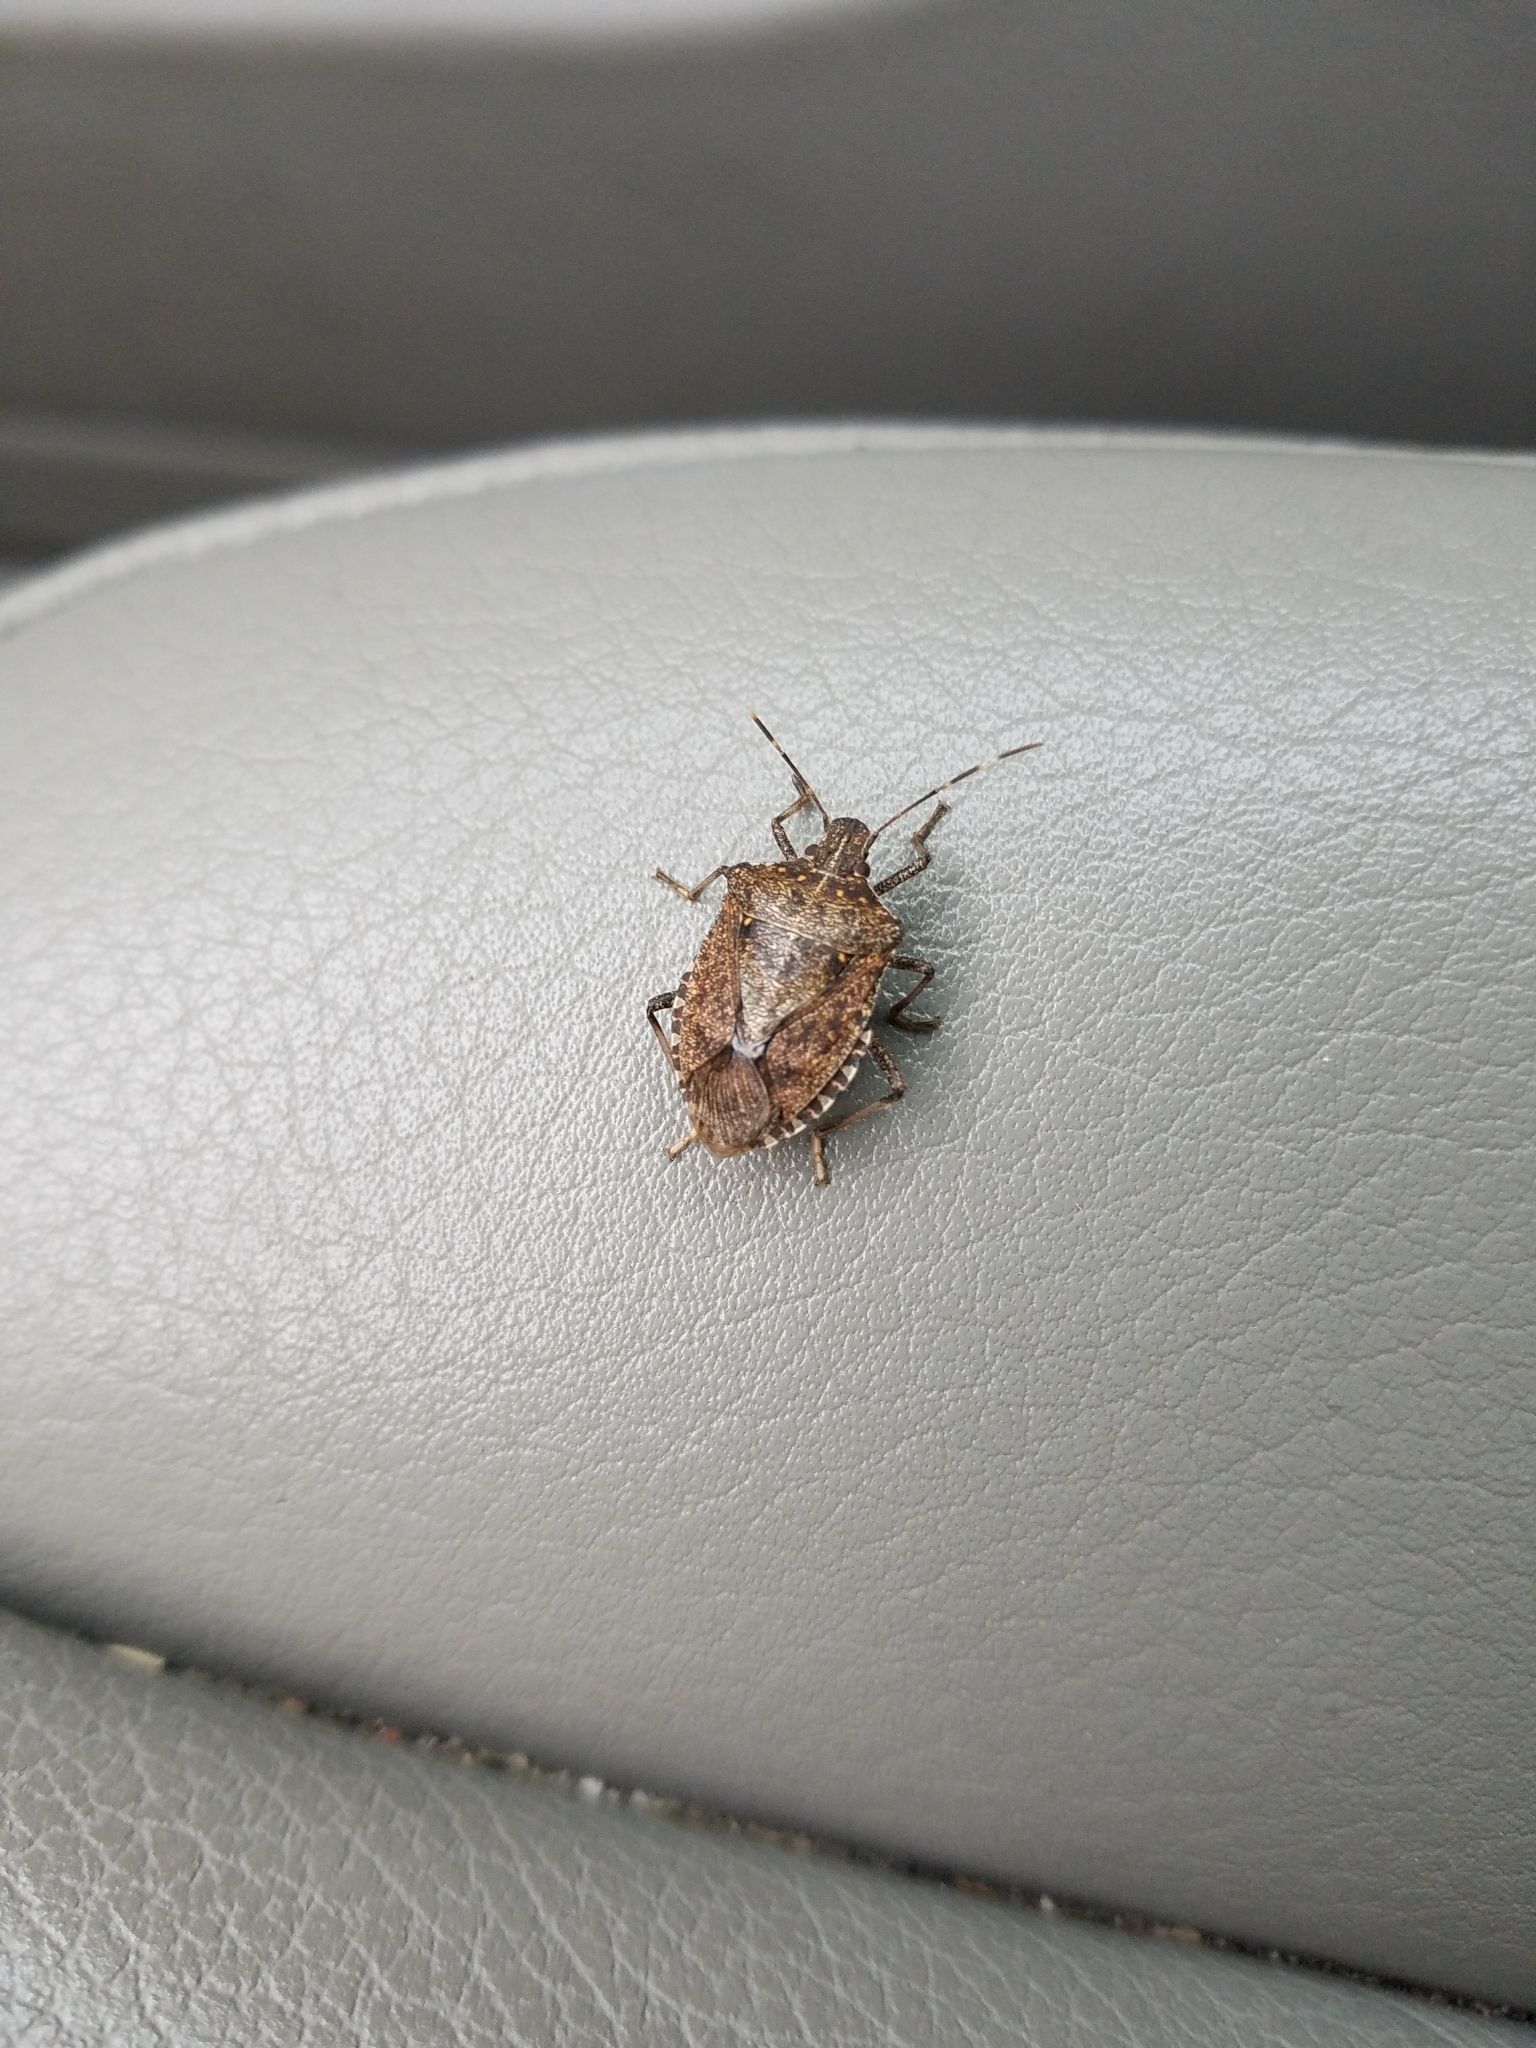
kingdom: Animalia
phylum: Arthropoda
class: Insecta
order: Hemiptera
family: Pentatomidae
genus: Halyomorpha
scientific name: Halyomorpha halys
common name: Brown marmorated stink bug
